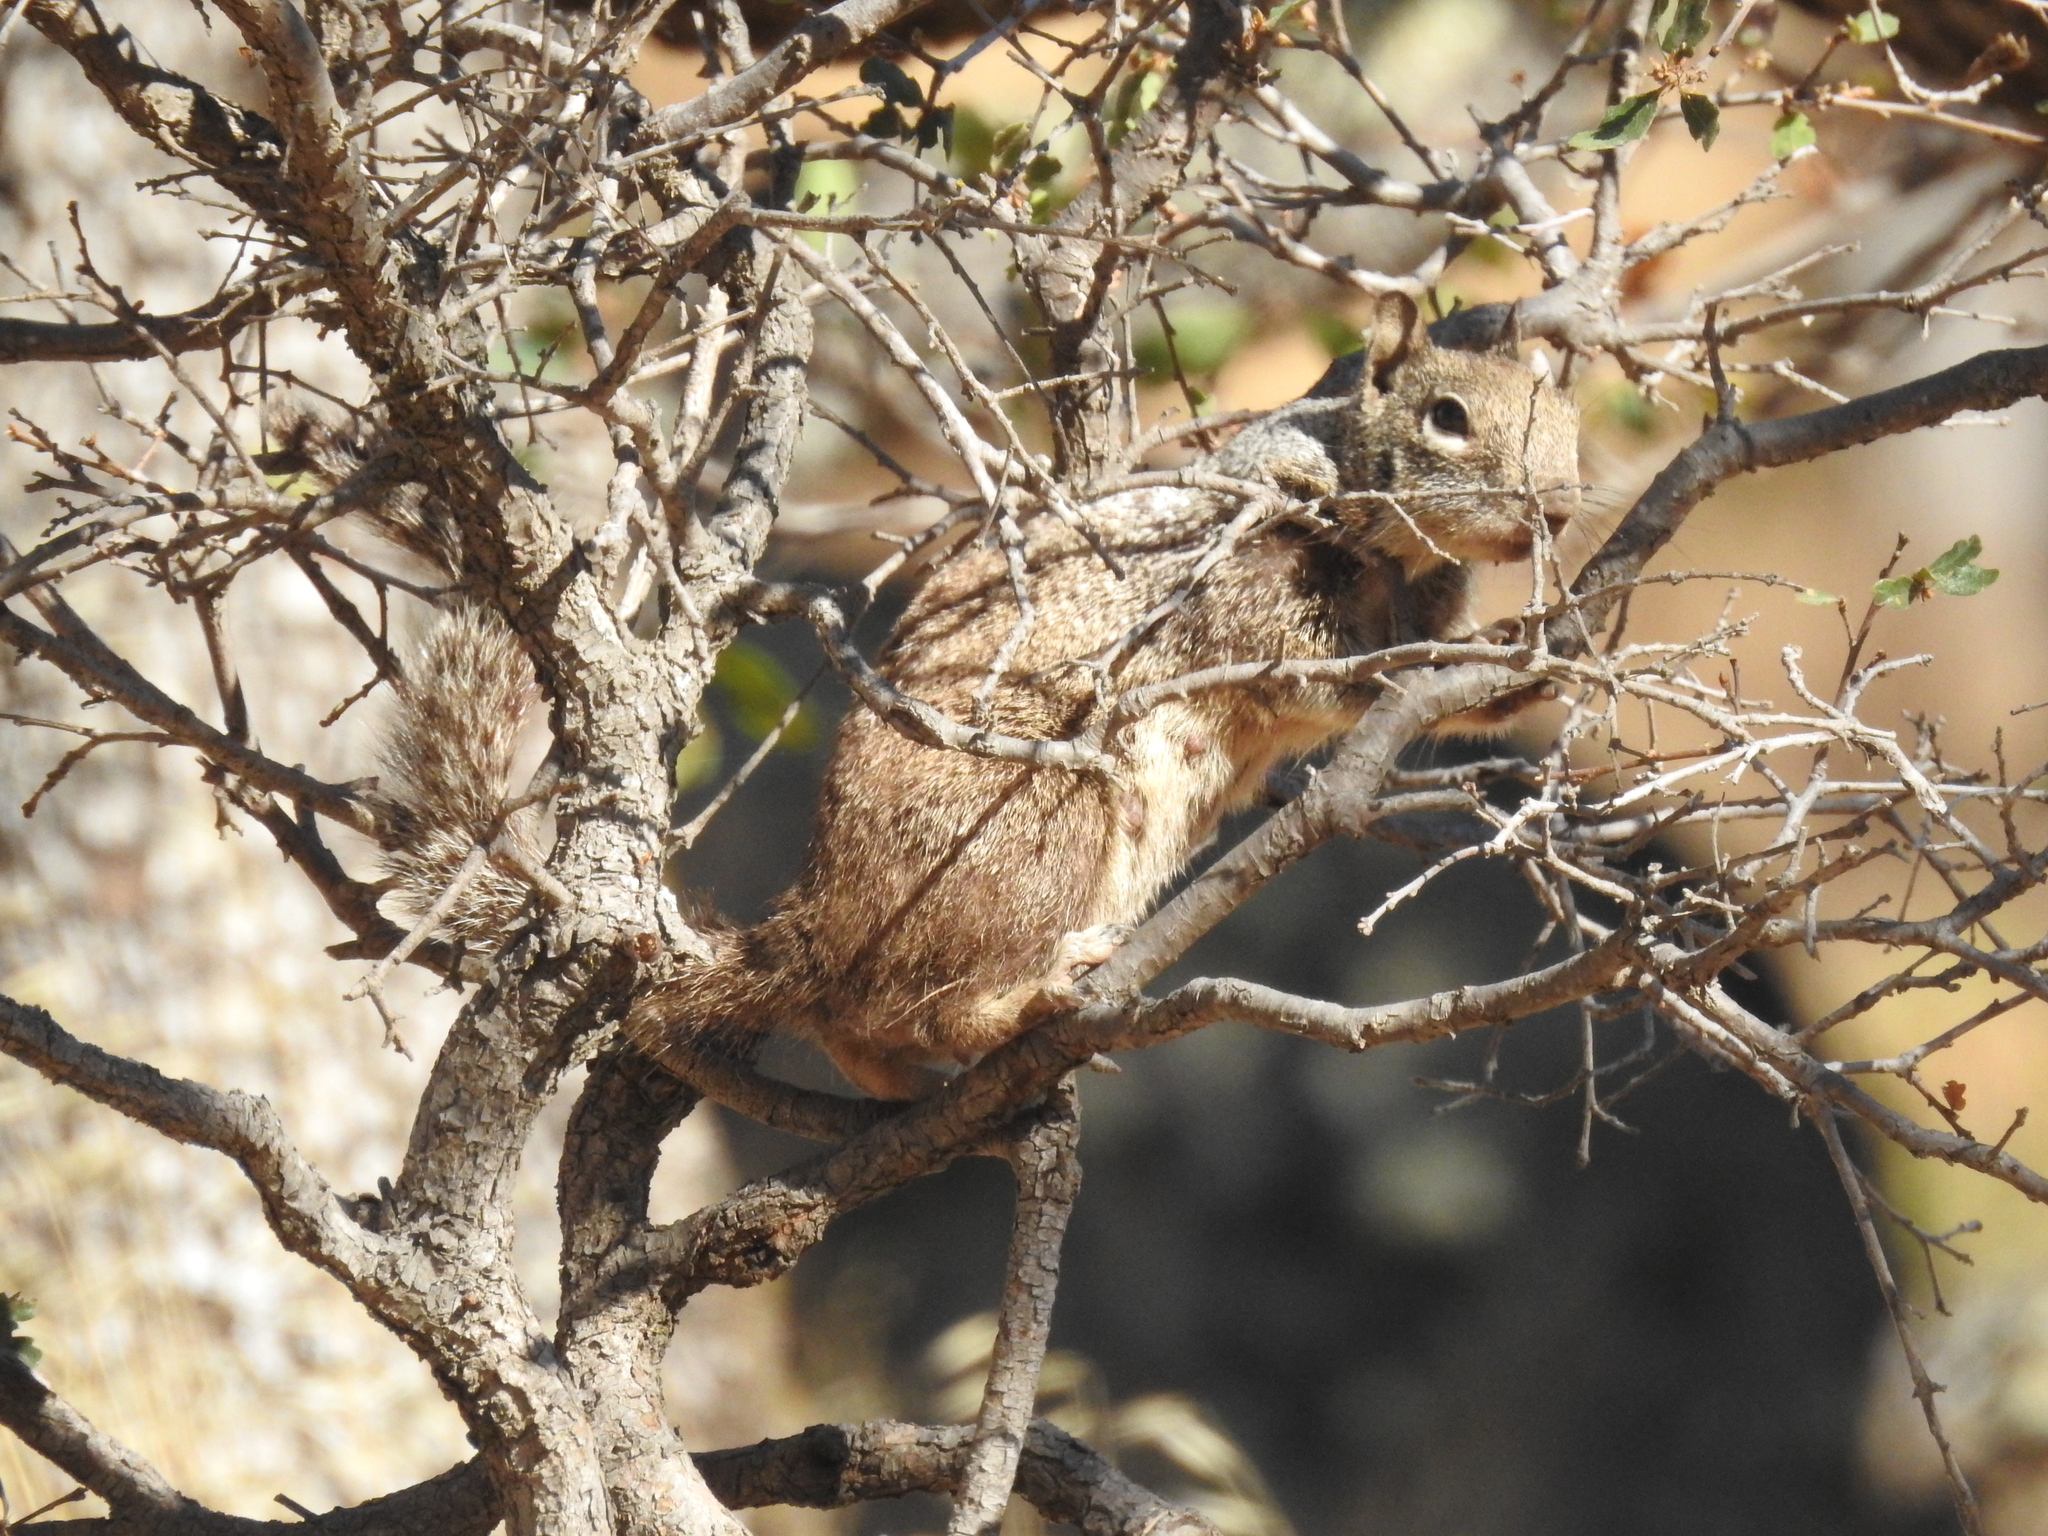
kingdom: Animalia
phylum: Chordata
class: Mammalia
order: Rodentia
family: Sciuridae
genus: Otospermophilus
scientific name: Otospermophilus beecheyi
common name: California ground squirrel
